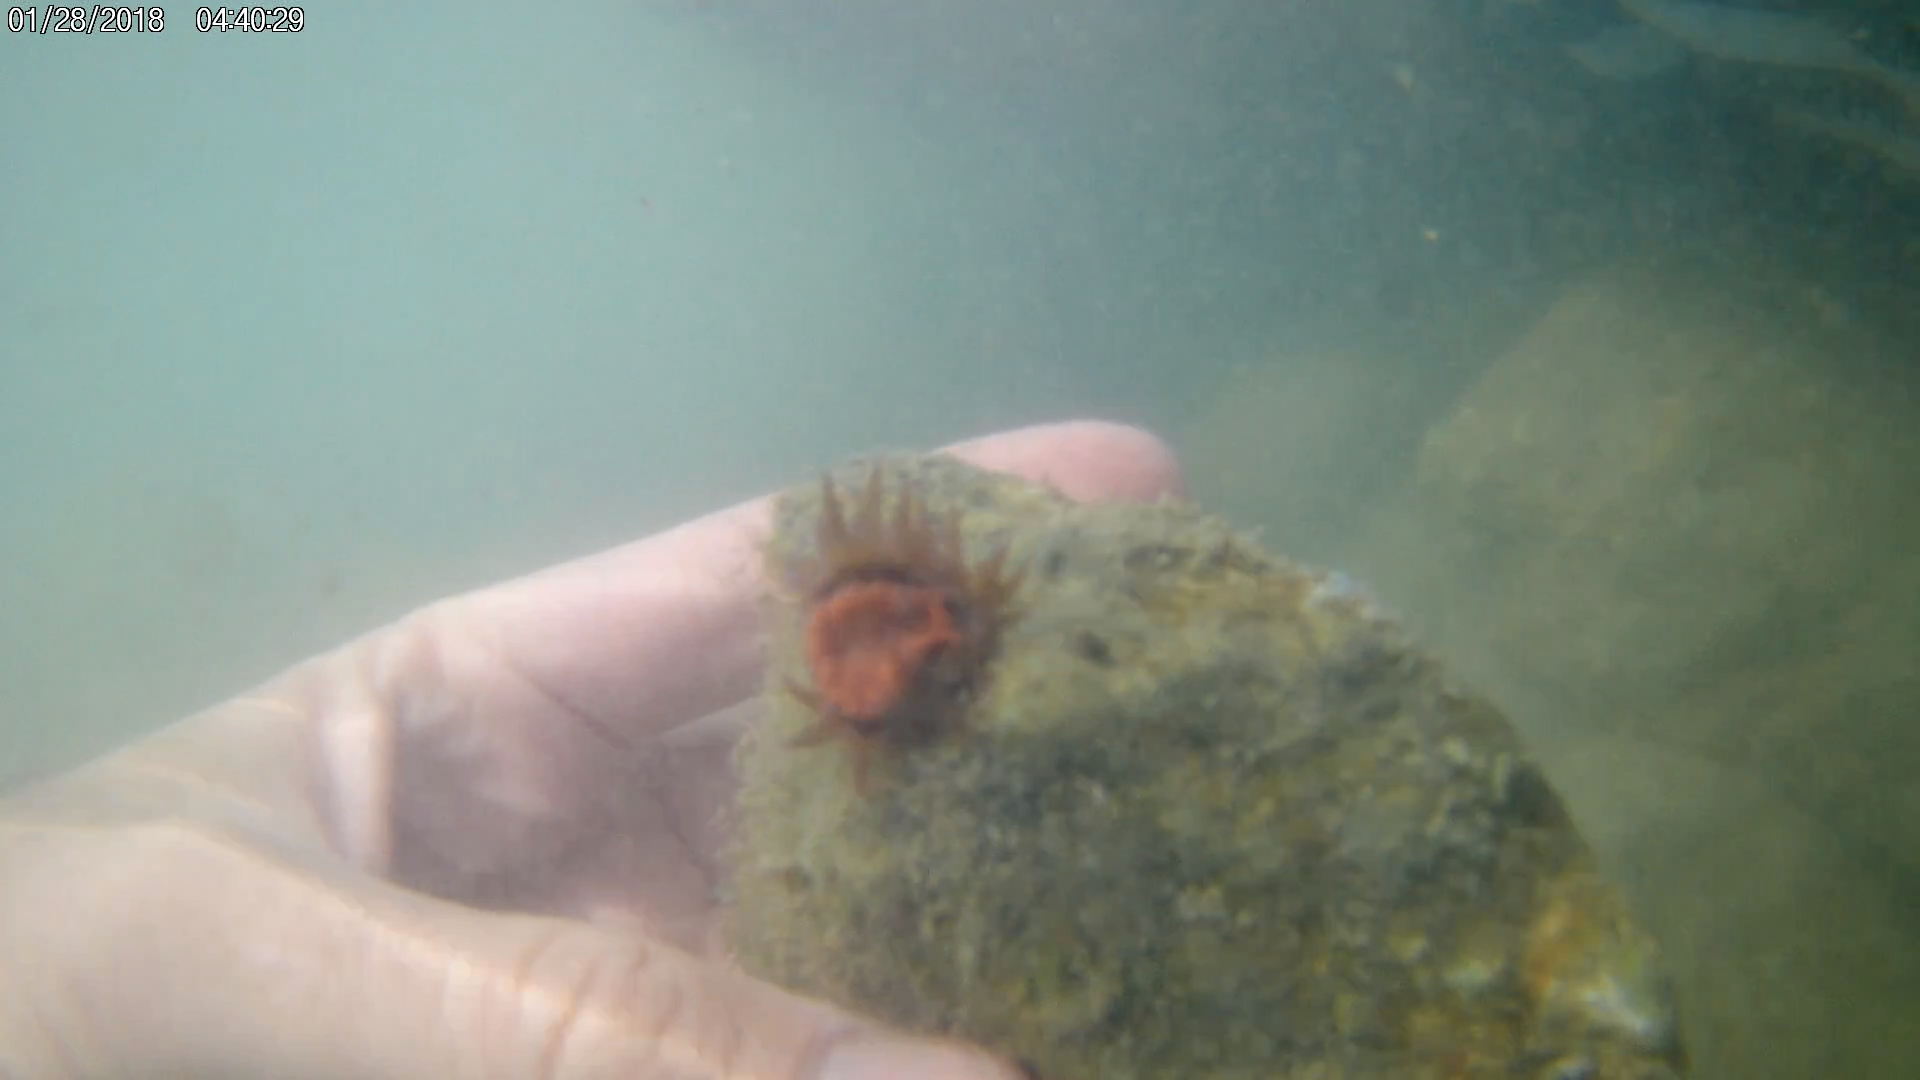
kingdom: Animalia
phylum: Cnidaria
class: Anthozoa
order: Actiniaria
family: Actiniidae
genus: Anemonia
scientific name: Anemonia sargassensis
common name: Sargassum anemone
